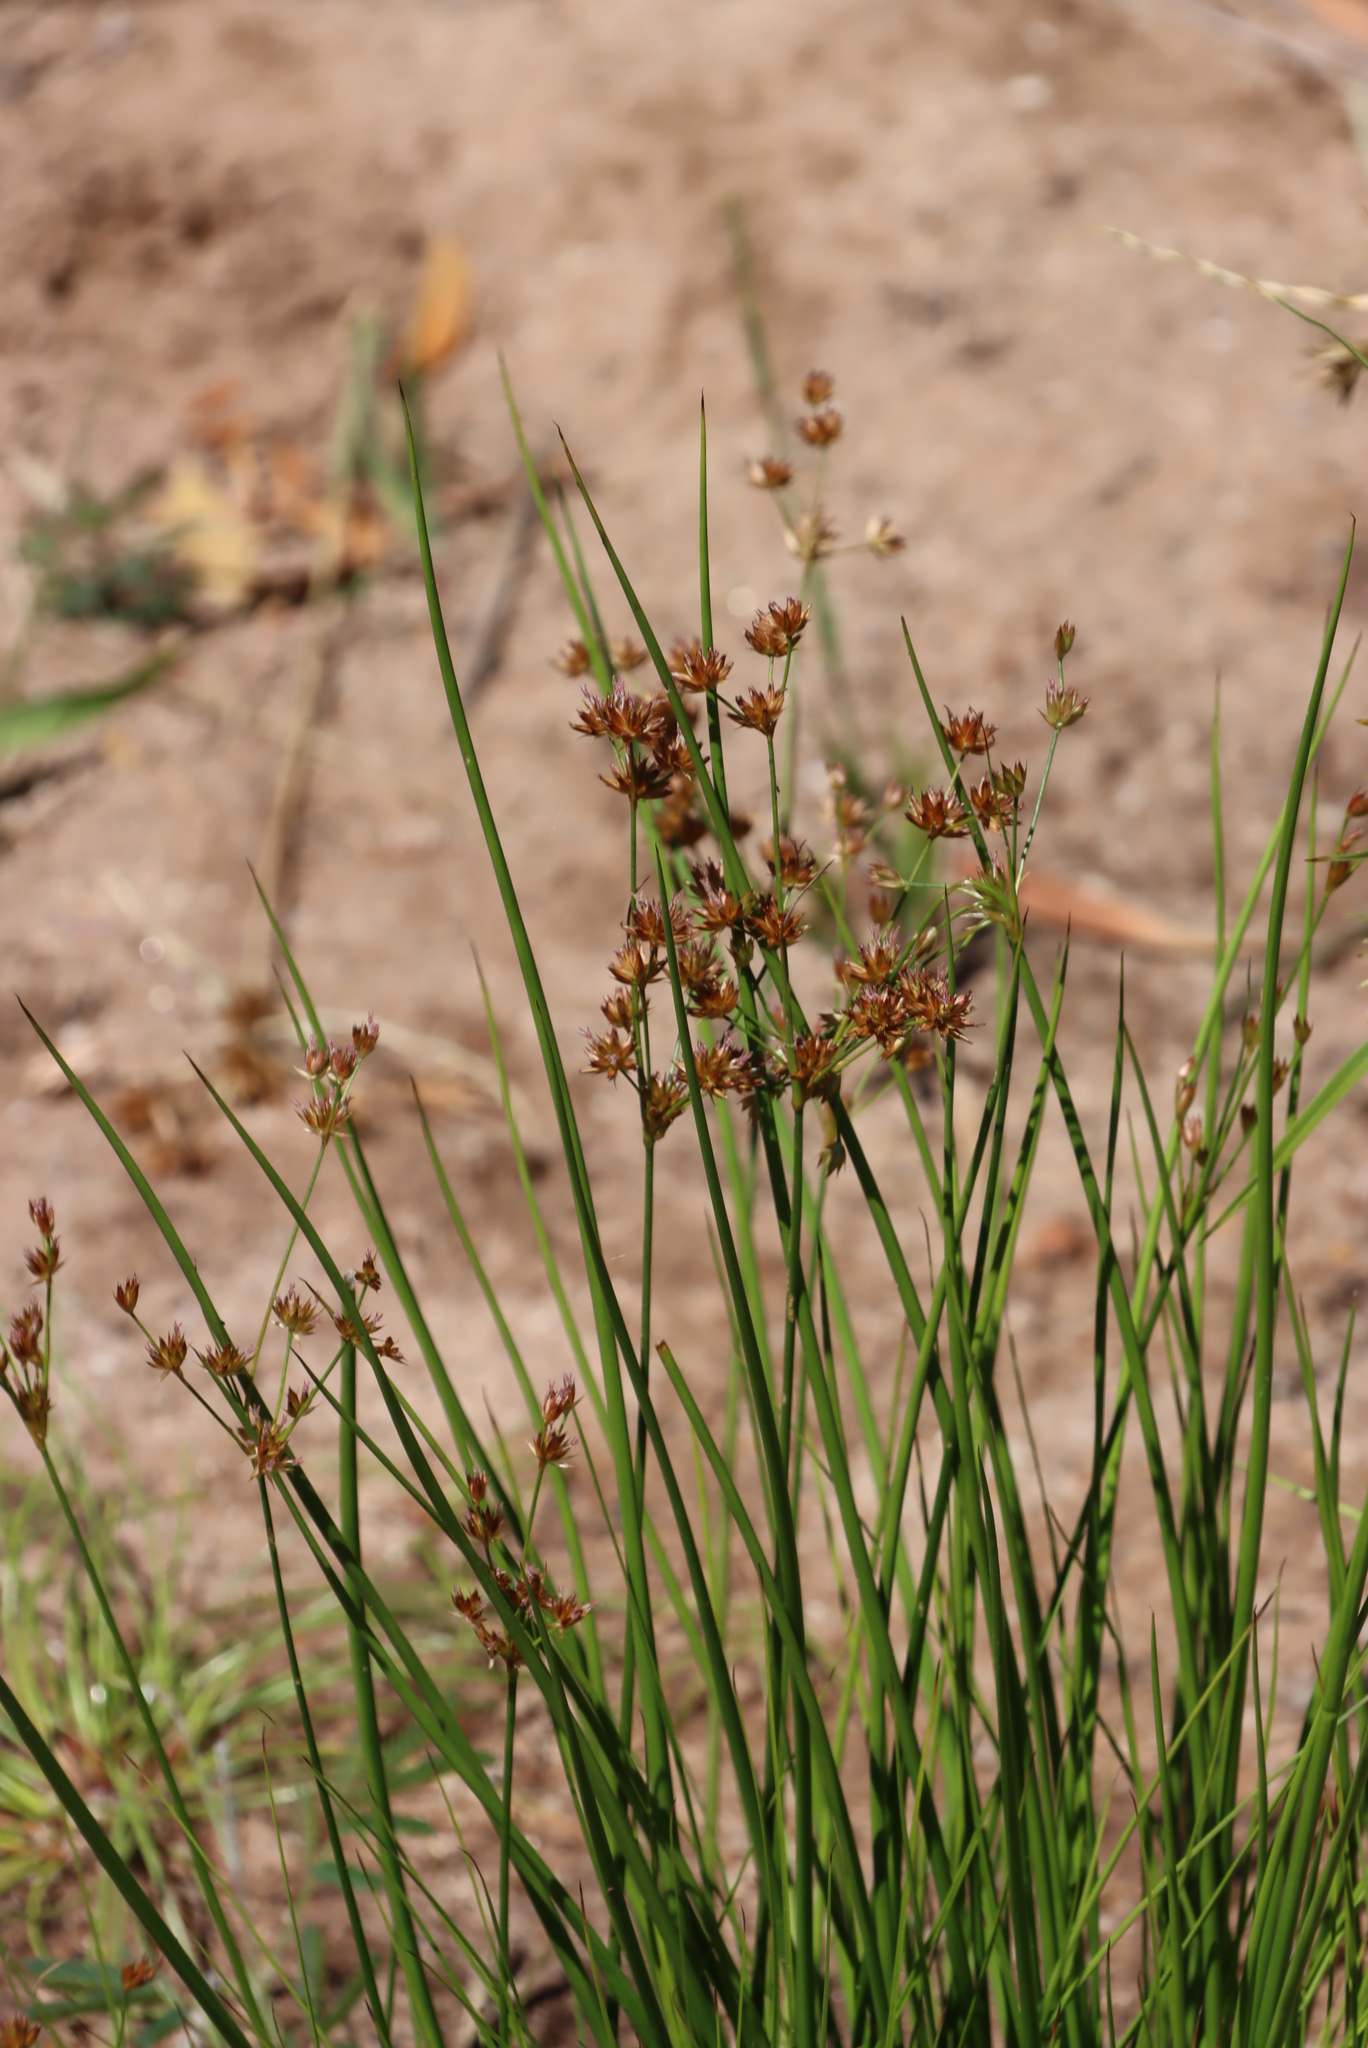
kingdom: Plantae
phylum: Tracheophyta
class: Liliopsida
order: Poales
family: Juncaceae
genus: Juncus
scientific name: Juncus capensis
